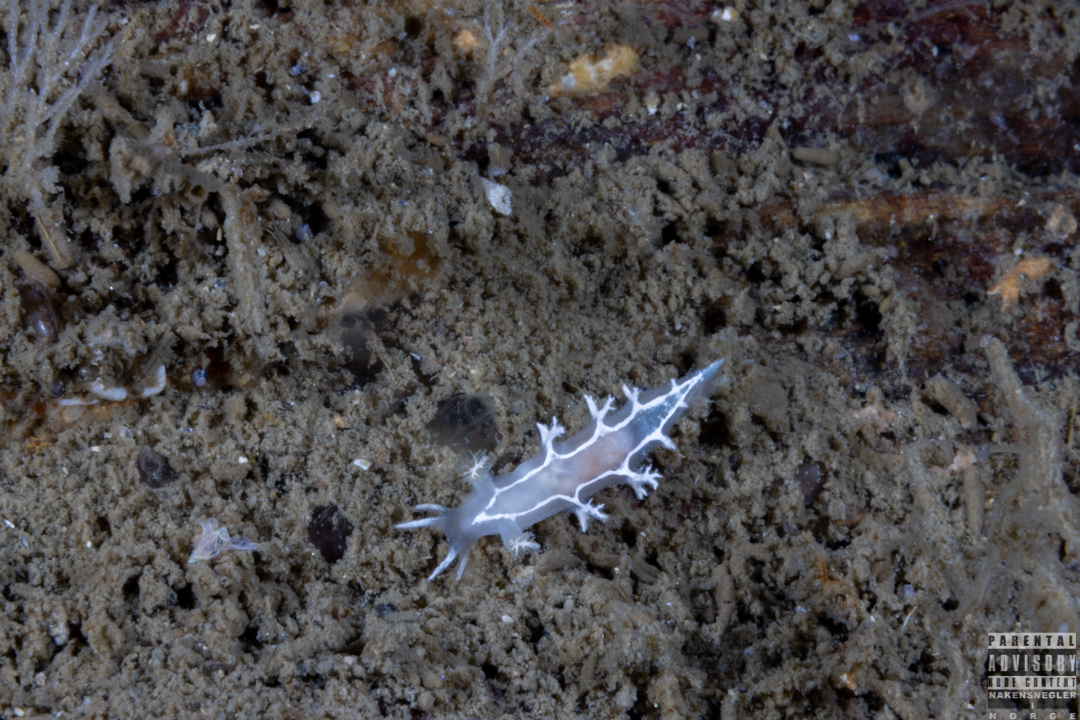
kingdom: Animalia
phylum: Mollusca
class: Gastropoda
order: Nudibranchia
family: Tritoniidae
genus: Duvaucelia
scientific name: Duvaucelia lineata
